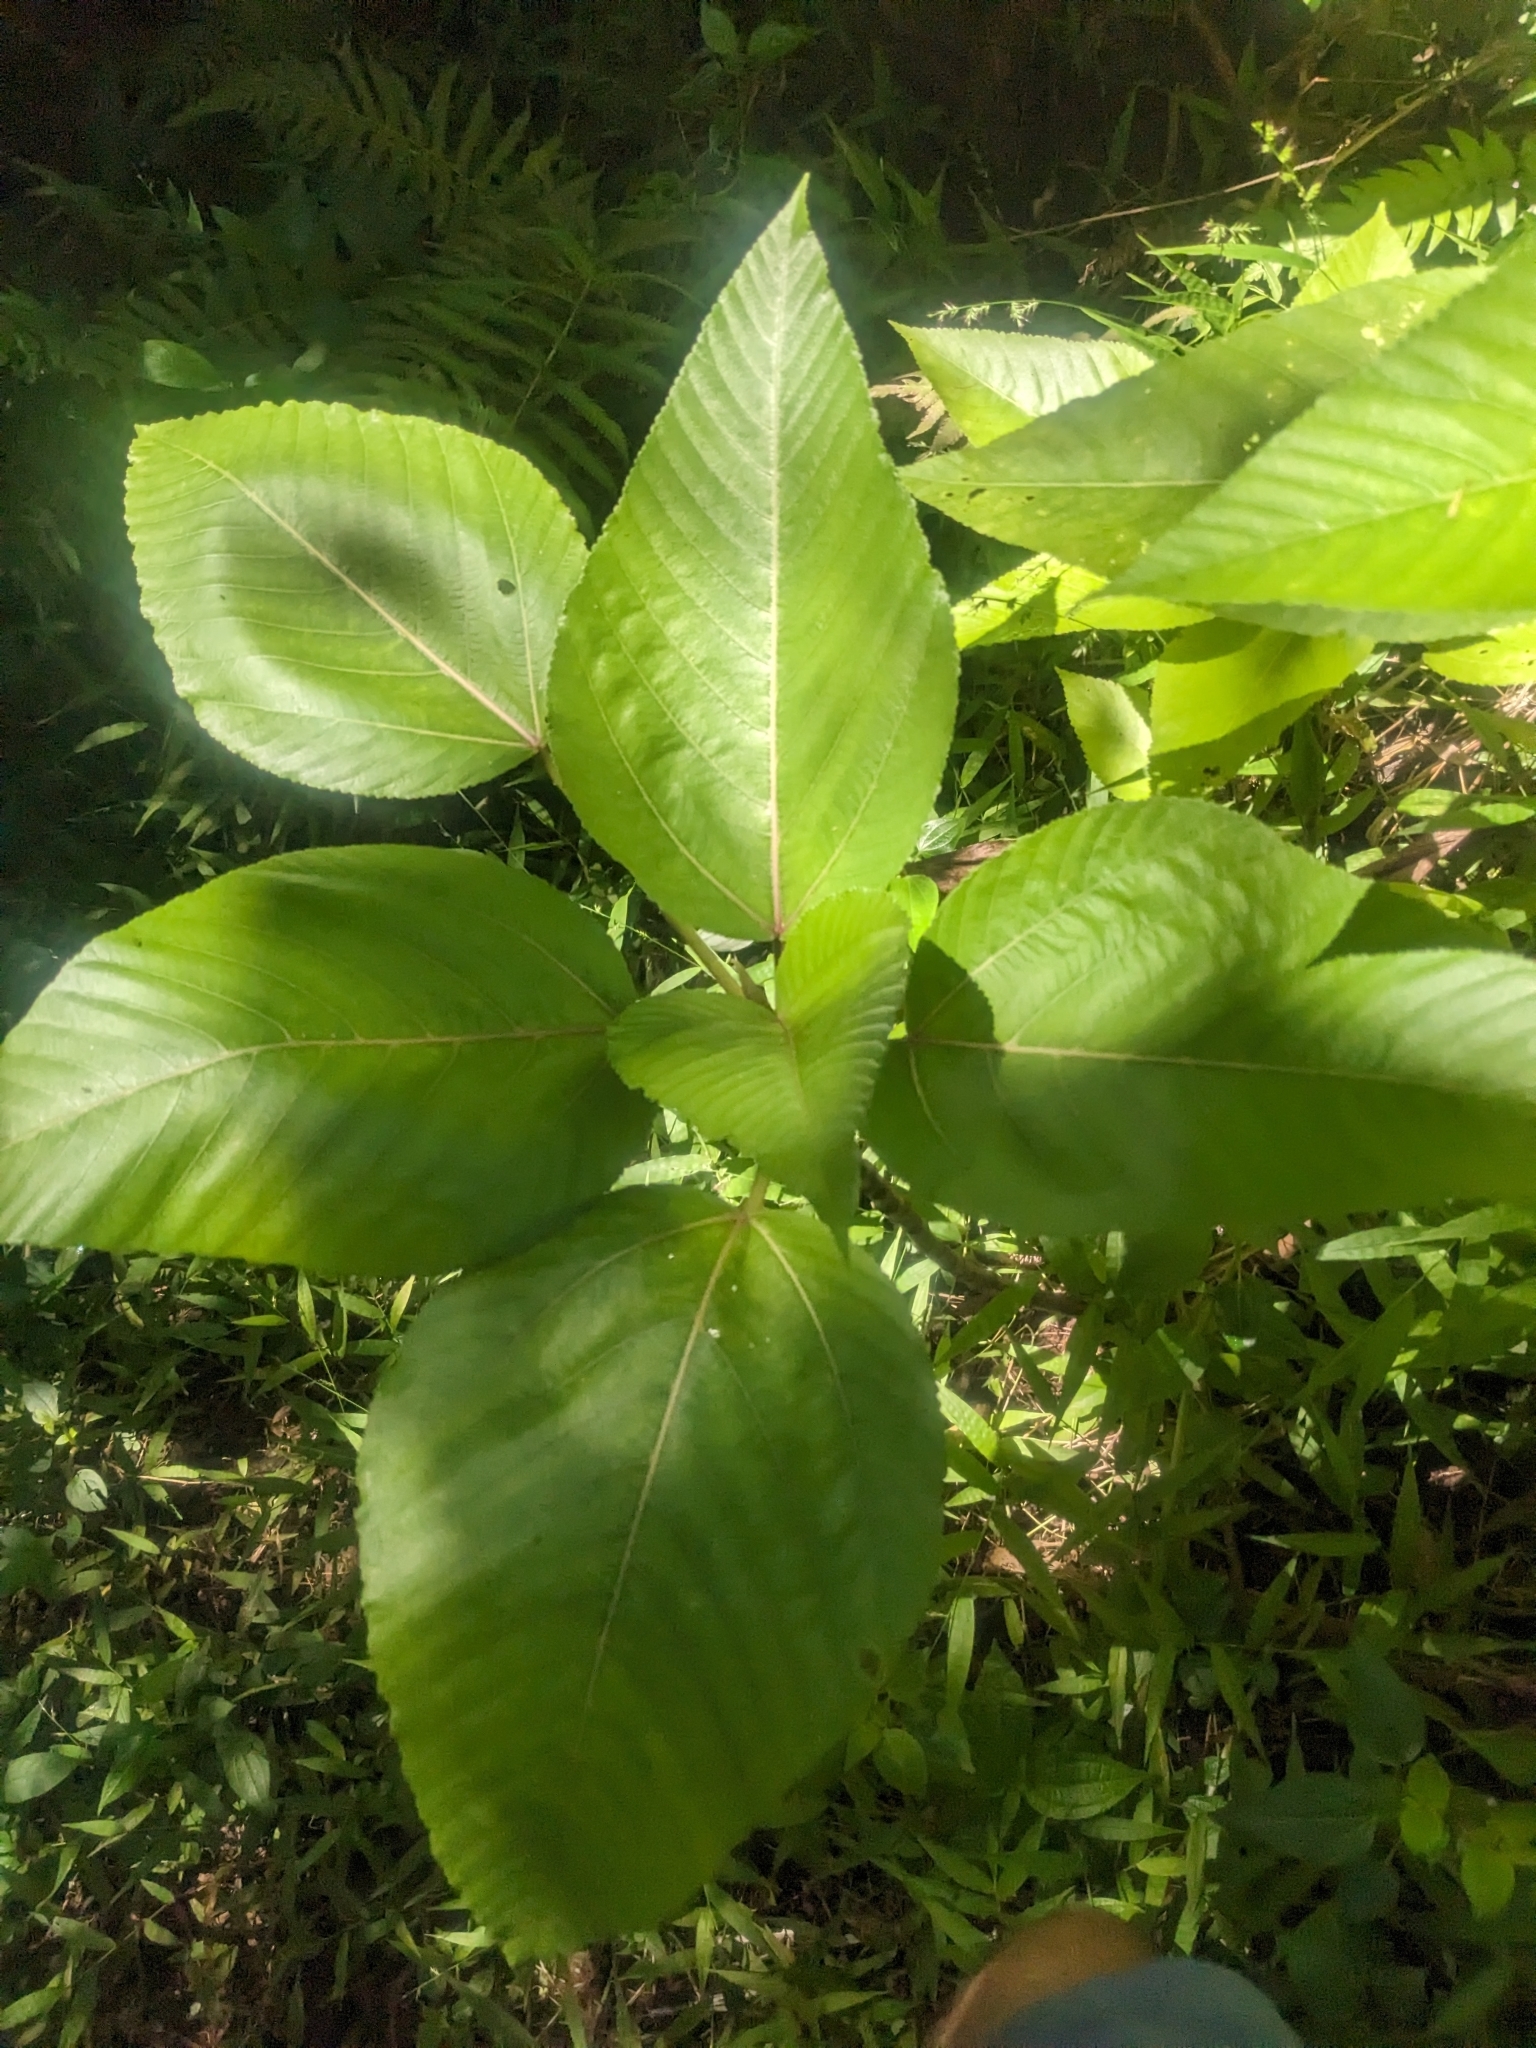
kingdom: Plantae
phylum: Tracheophyta
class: Magnoliopsida
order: Rosales
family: Urticaceae
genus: Touchardia
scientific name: Touchardia latifolia
